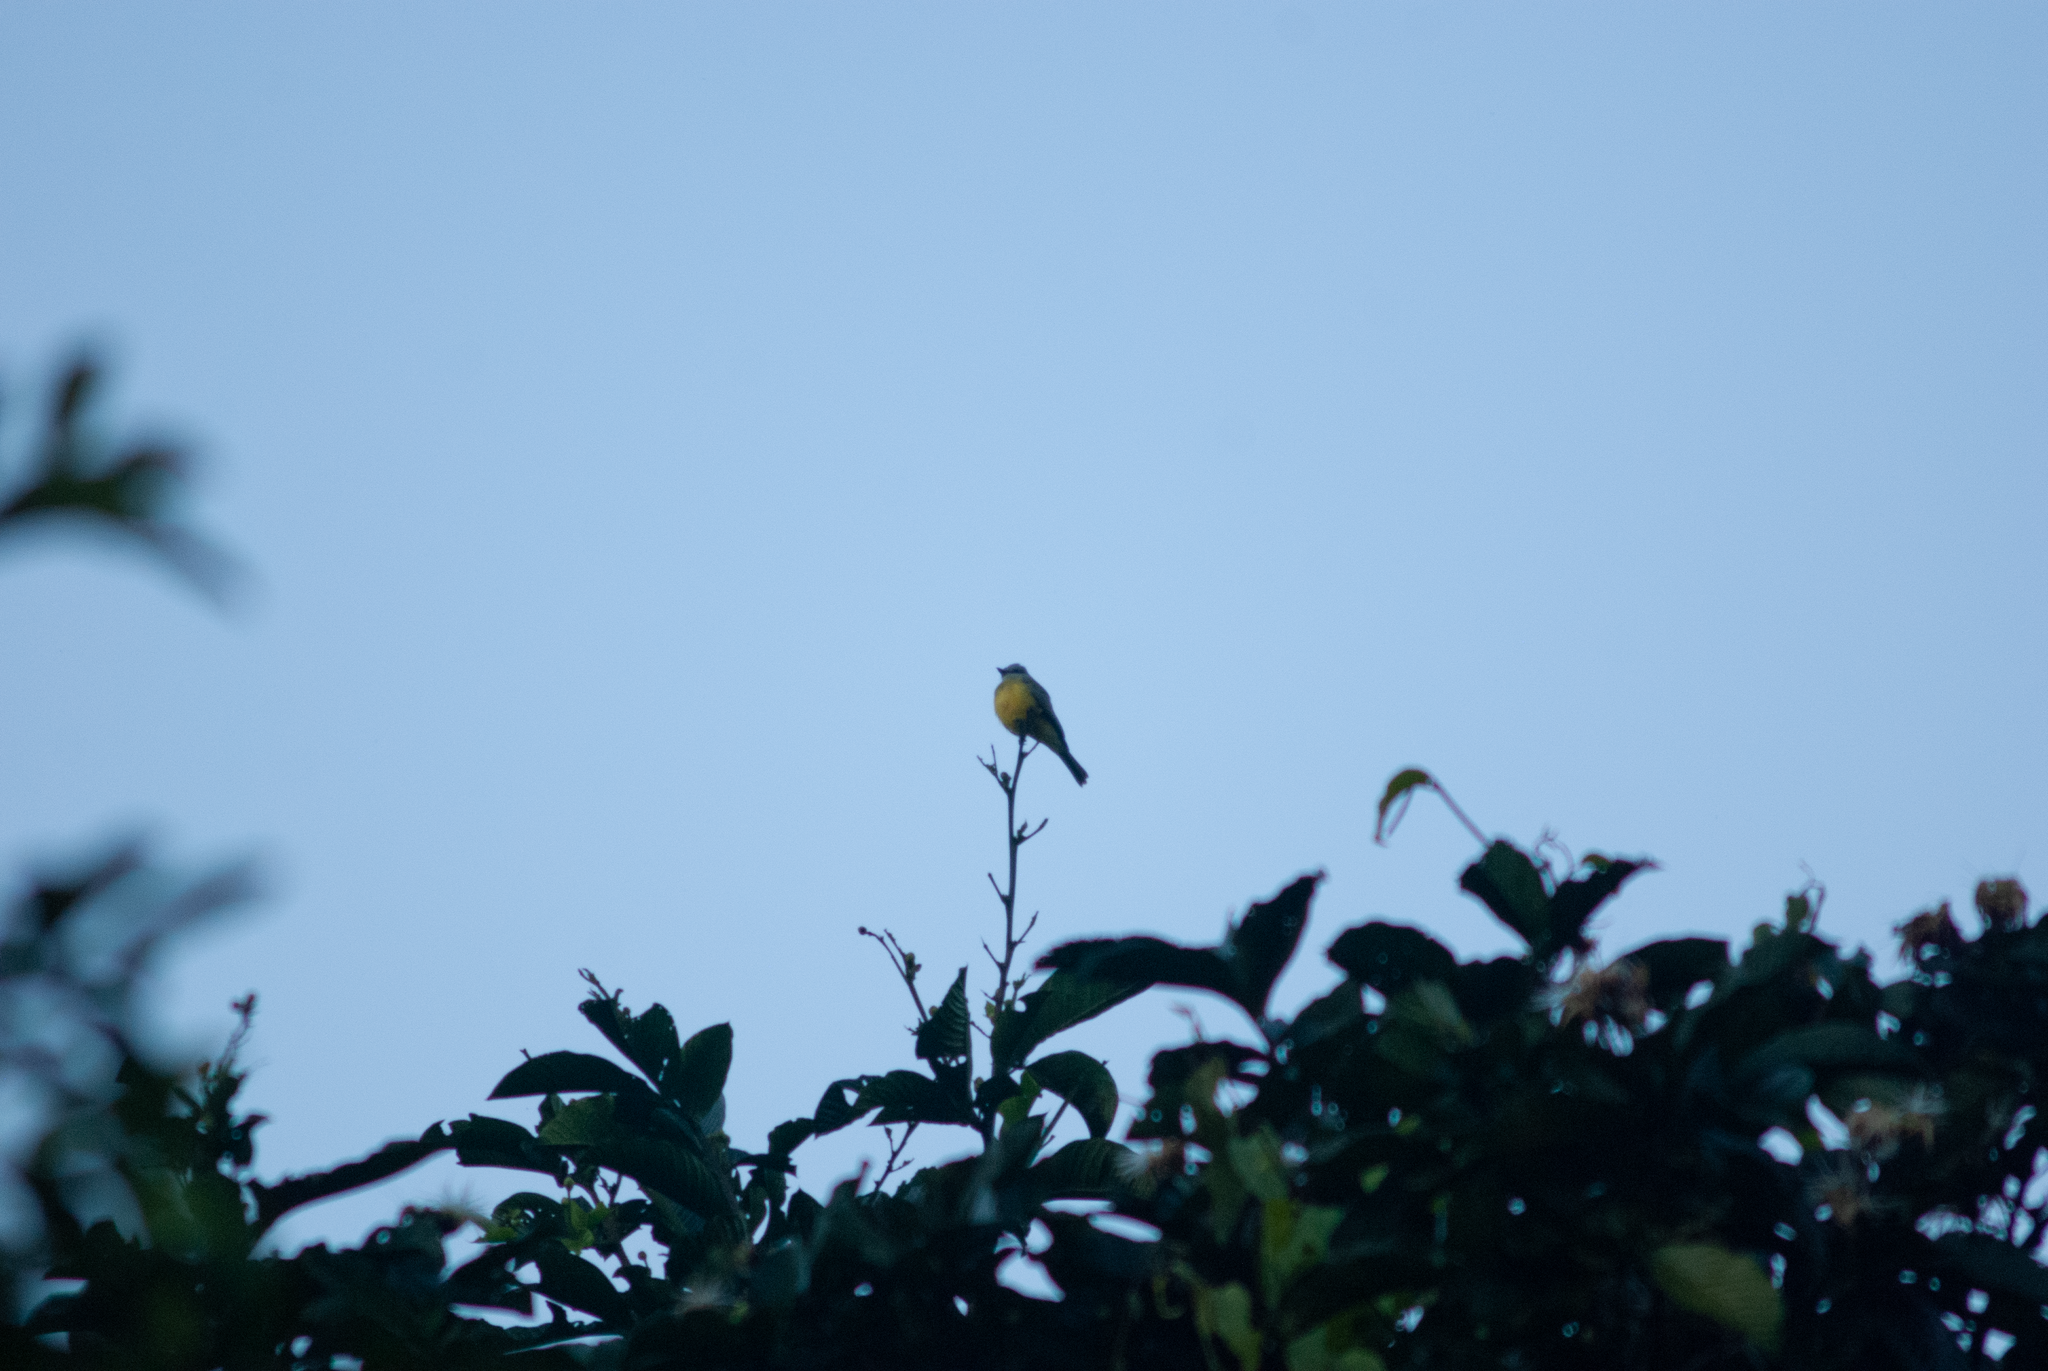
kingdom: Animalia
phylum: Chordata
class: Aves
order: Passeriformes
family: Tyrannidae
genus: Tyrannus
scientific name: Tyrannus melancholicus
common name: Tropical kingbird
